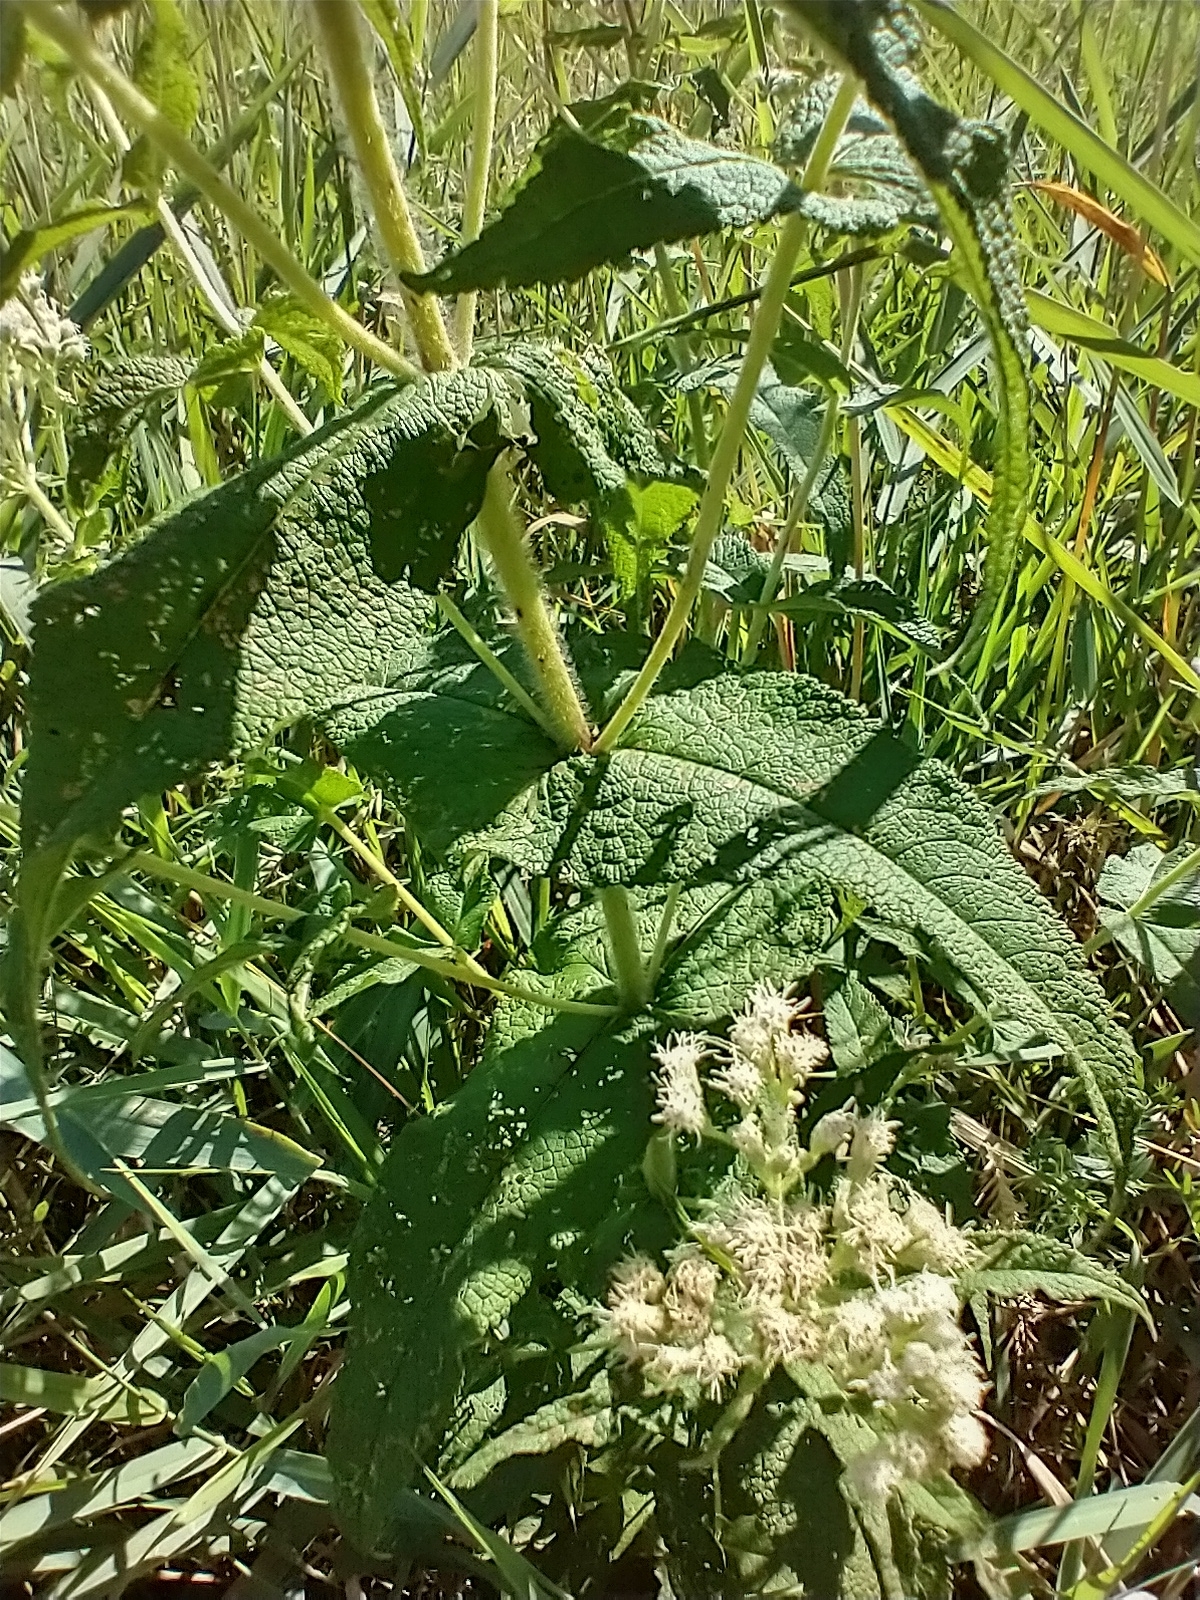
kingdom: Plantae
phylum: Tracheophyta
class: Magnoliopsida
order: Asterales
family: Asteraceae
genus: Eupatorium
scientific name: Eupatorium perfoliatum
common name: Boneset
